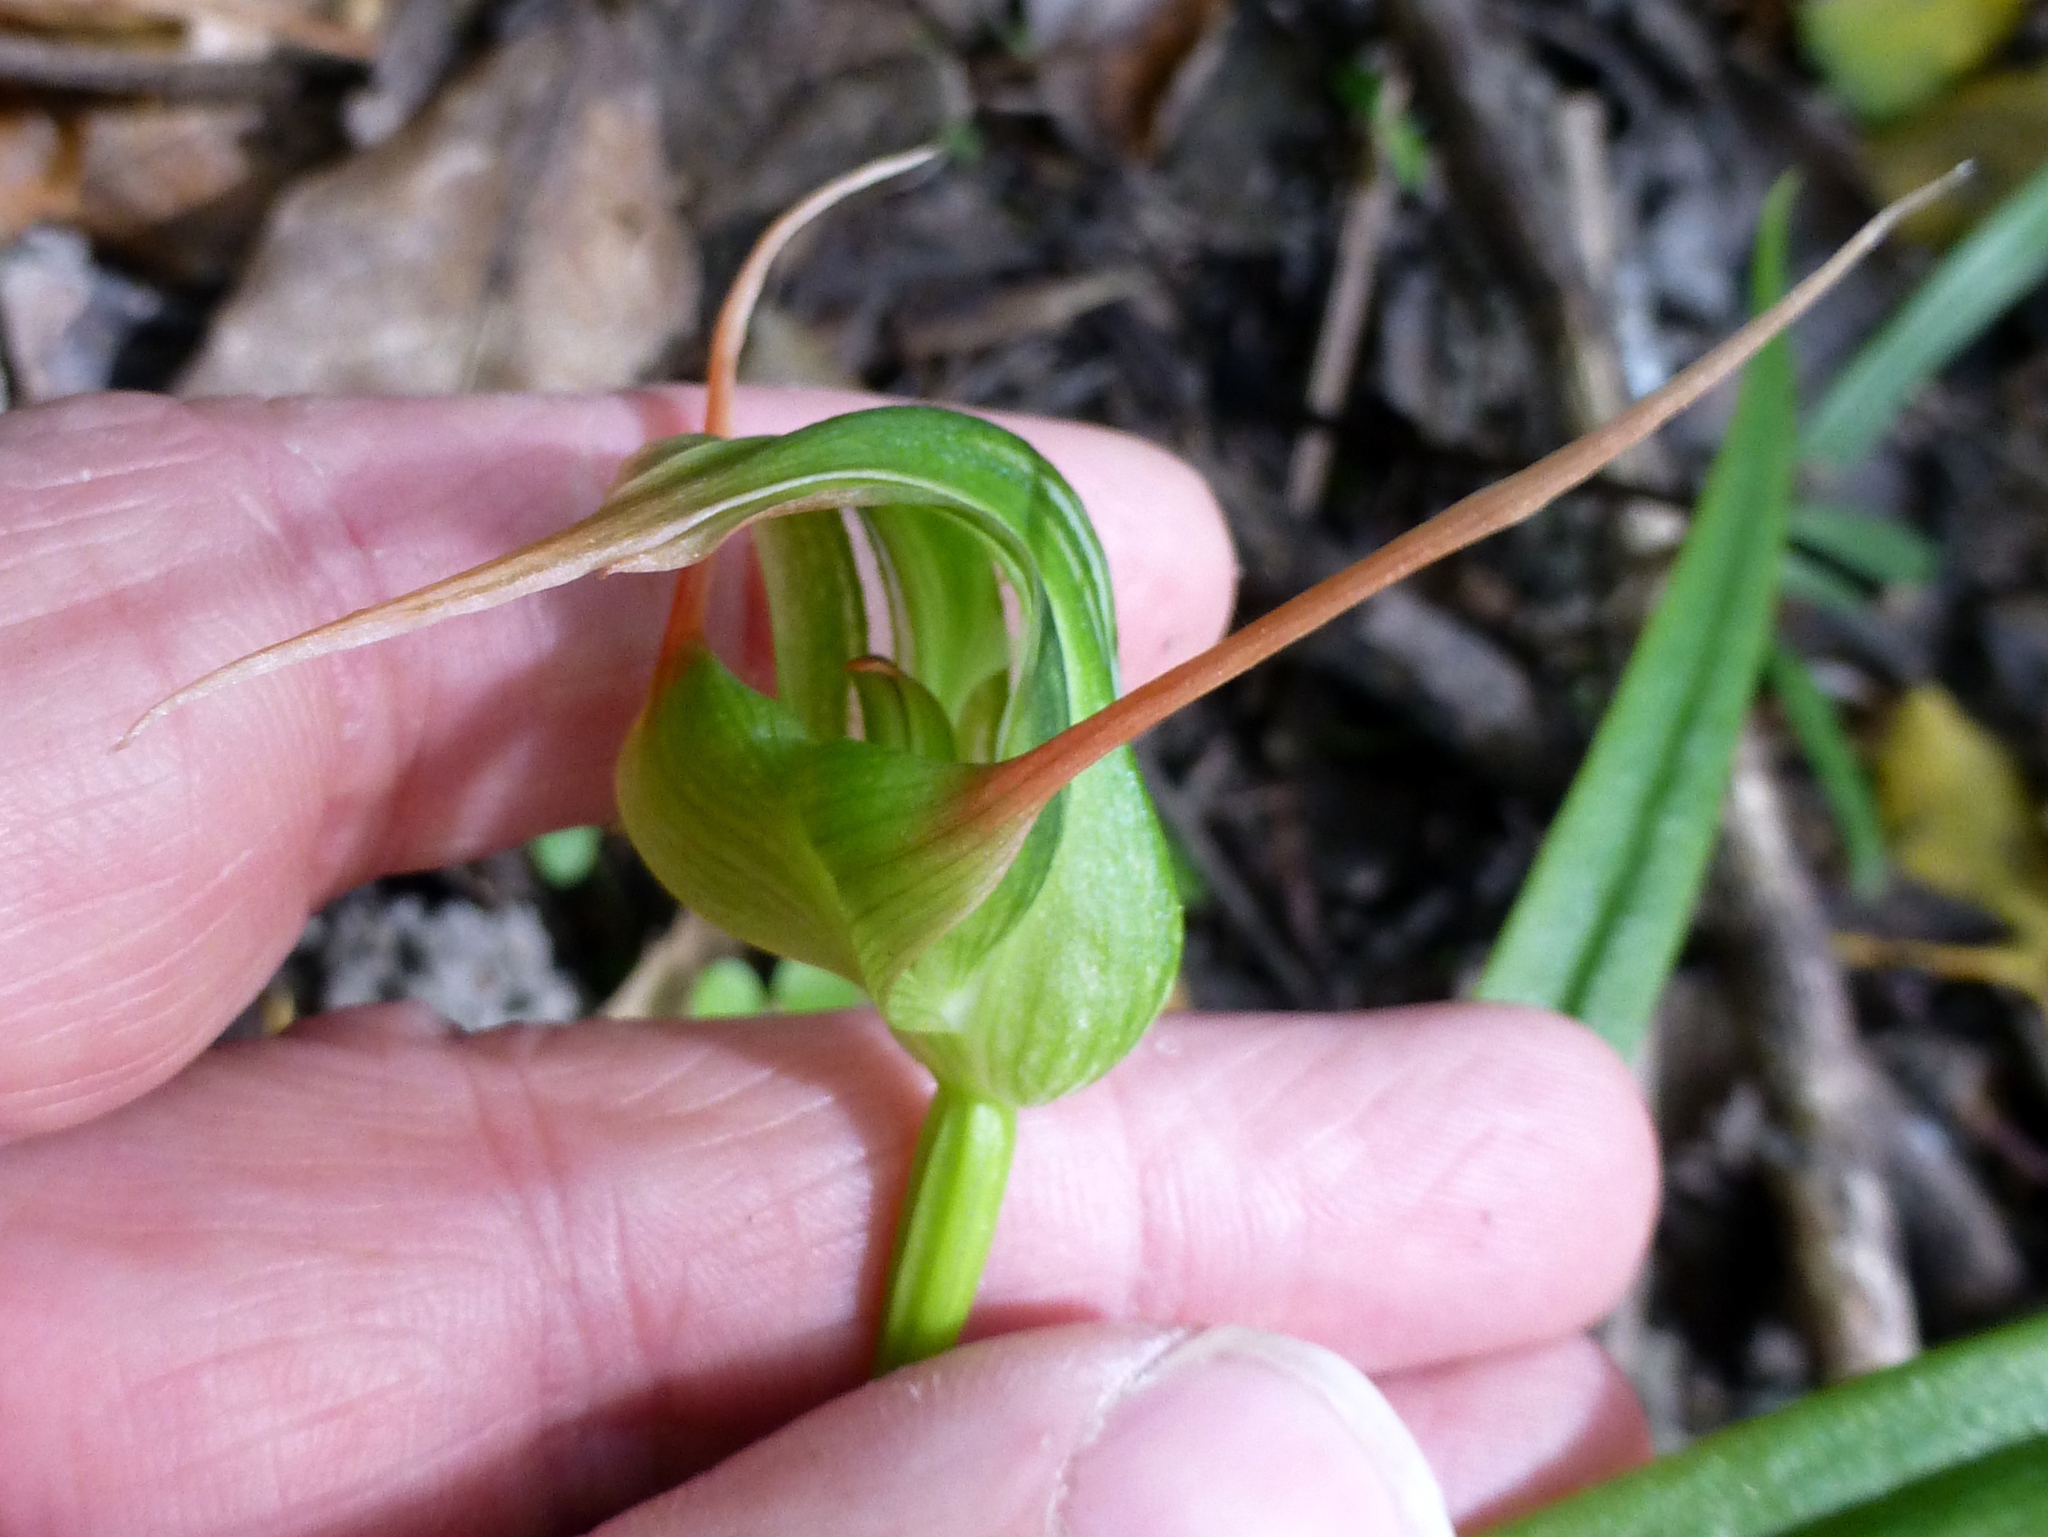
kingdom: Plantae
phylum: Tracheophyta
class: Liliopsida
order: Asparagales
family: Orchidaceae
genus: Pterostylis
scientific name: Pterostylis banksii
